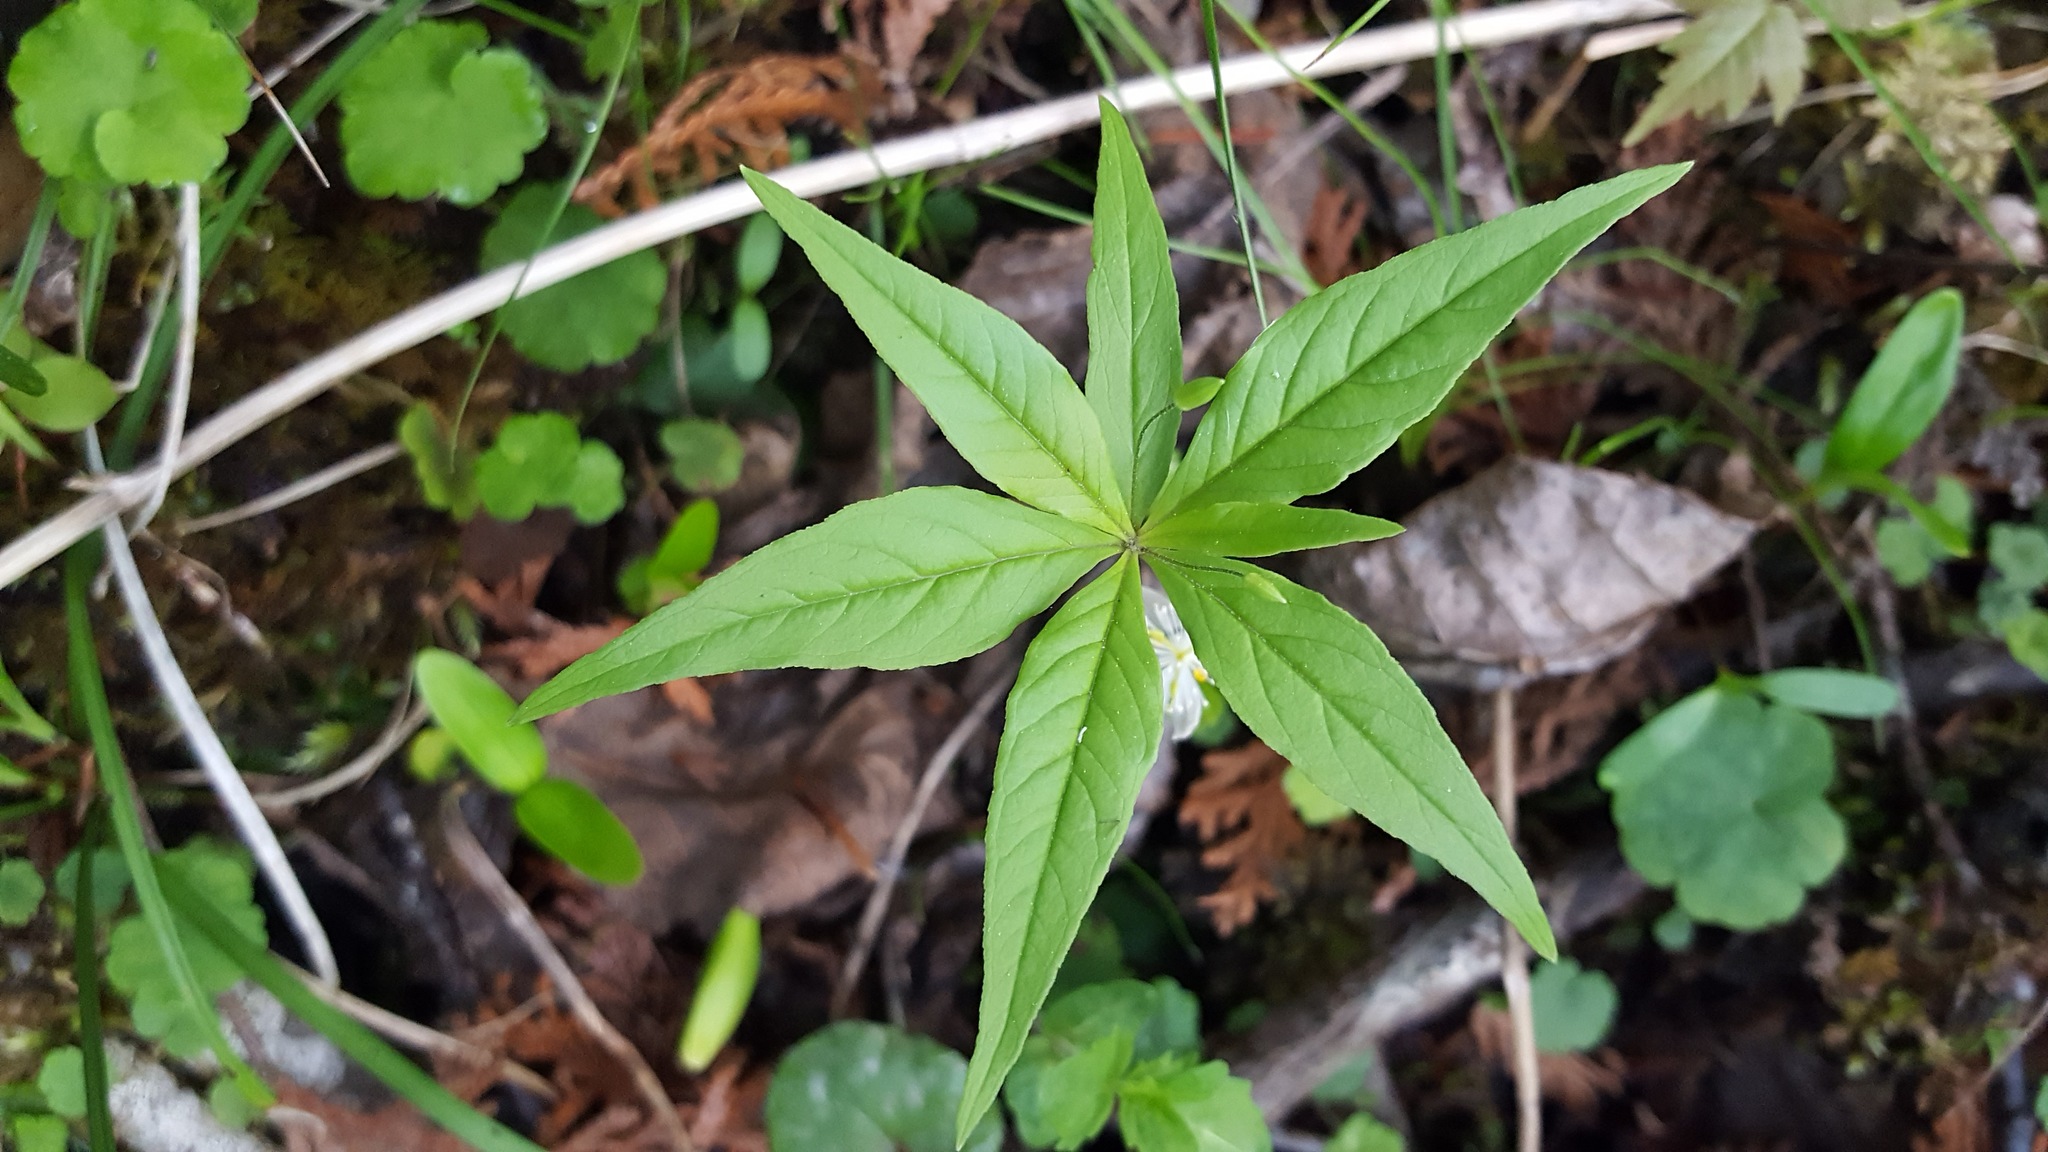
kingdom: Plantae
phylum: Tracheophyta
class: Magnoliopsida
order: Ericales
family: Primulaceae
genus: Lysimachia
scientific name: Lysimachia borealis
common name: American starflower
